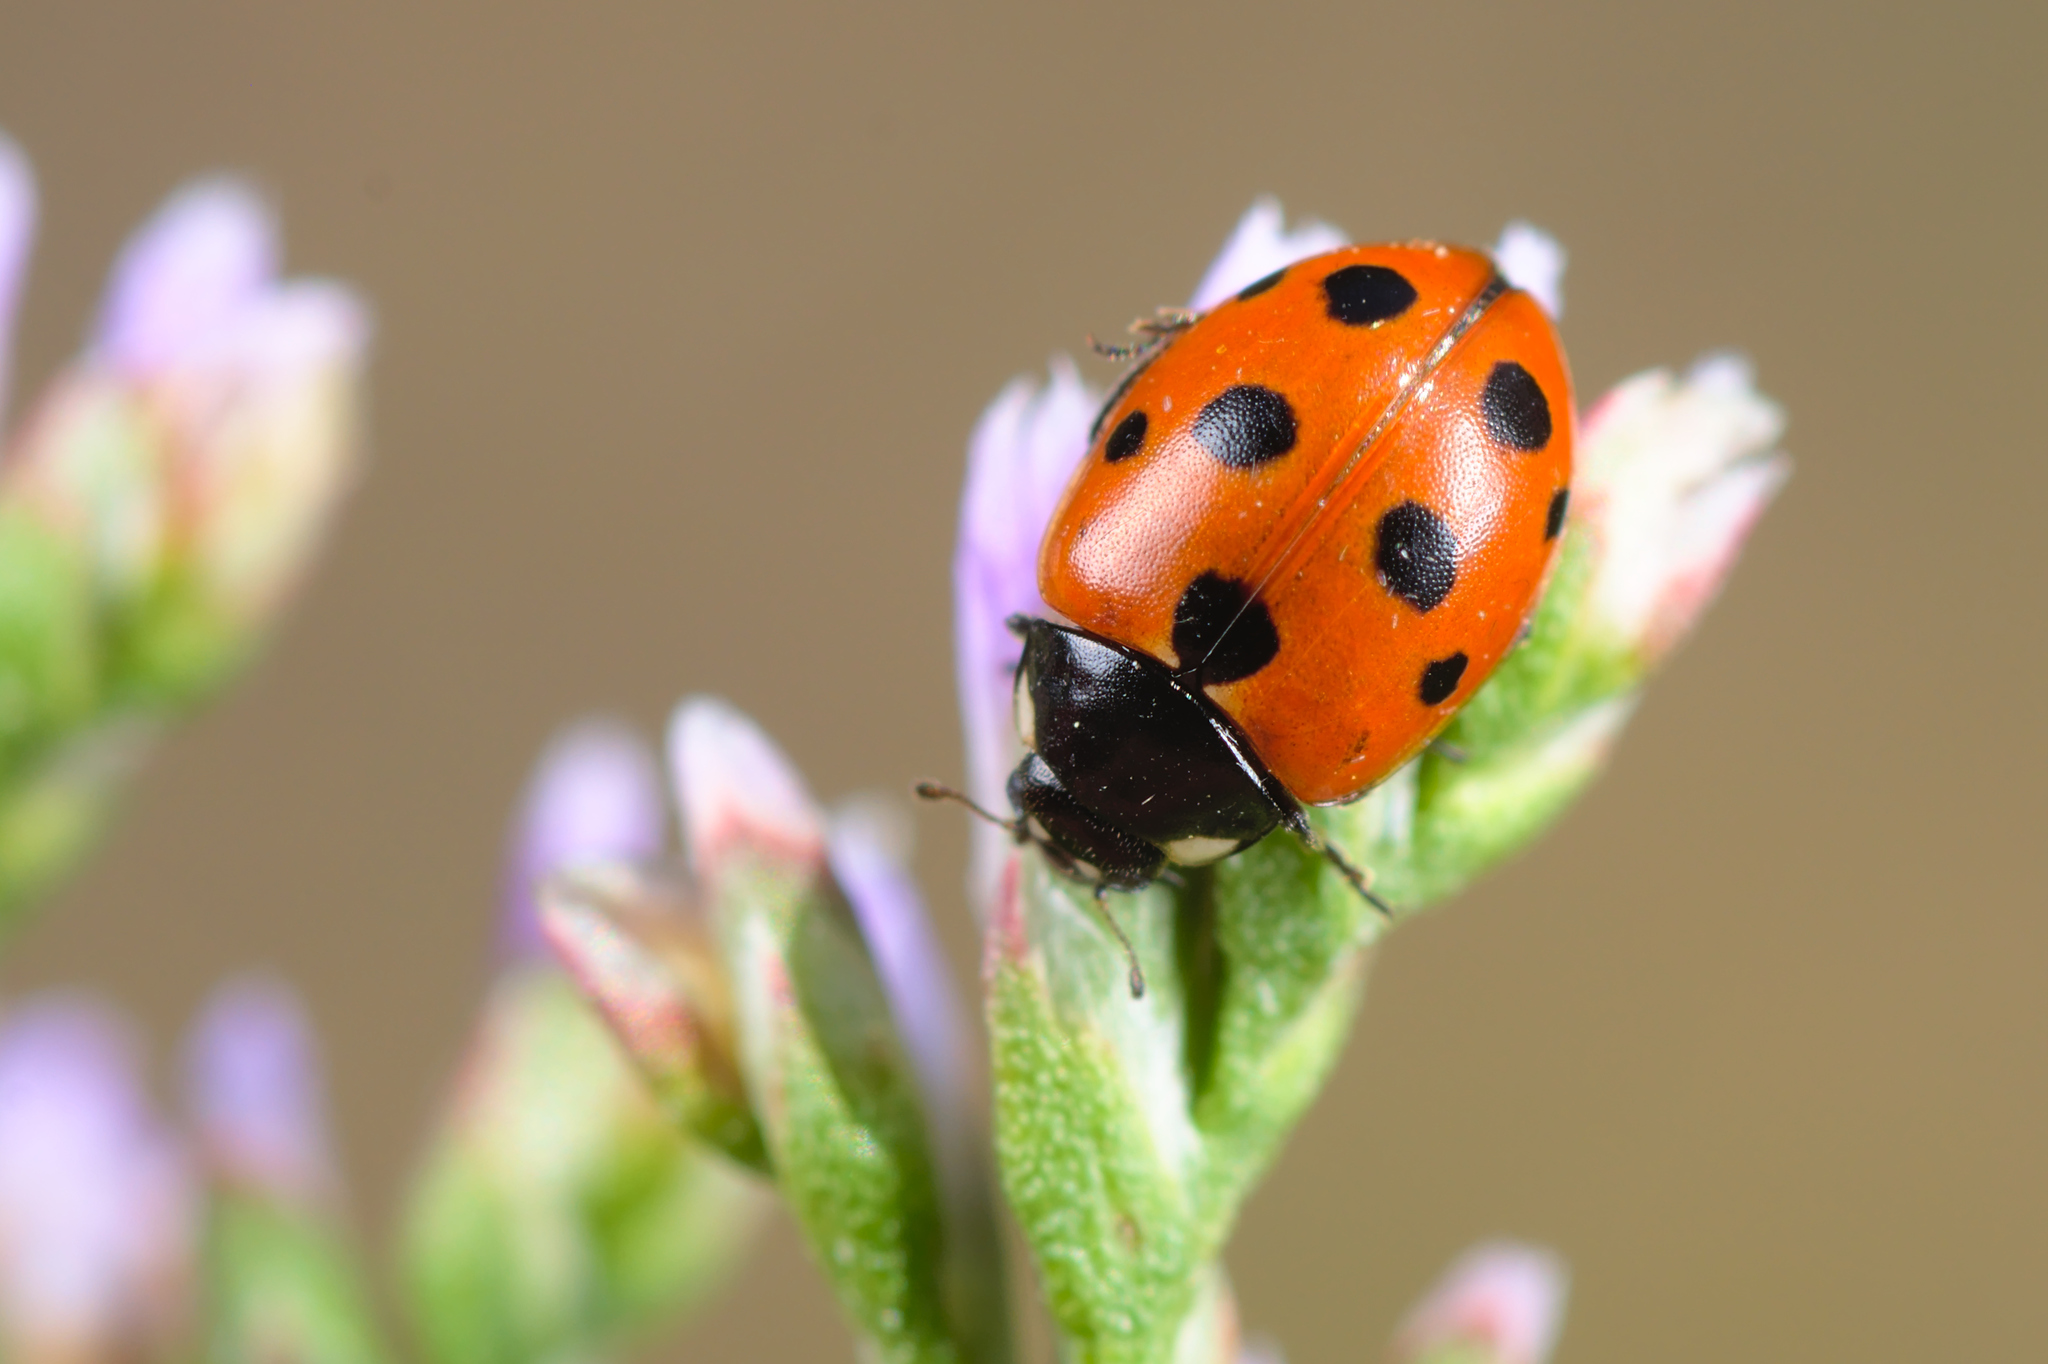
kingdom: Animalia
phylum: Arthropoda
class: Insecta
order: Coleoptera
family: Coccinellidae
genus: Coccinella
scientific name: Coccinella undecimpunctata
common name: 11-spot ladybird
